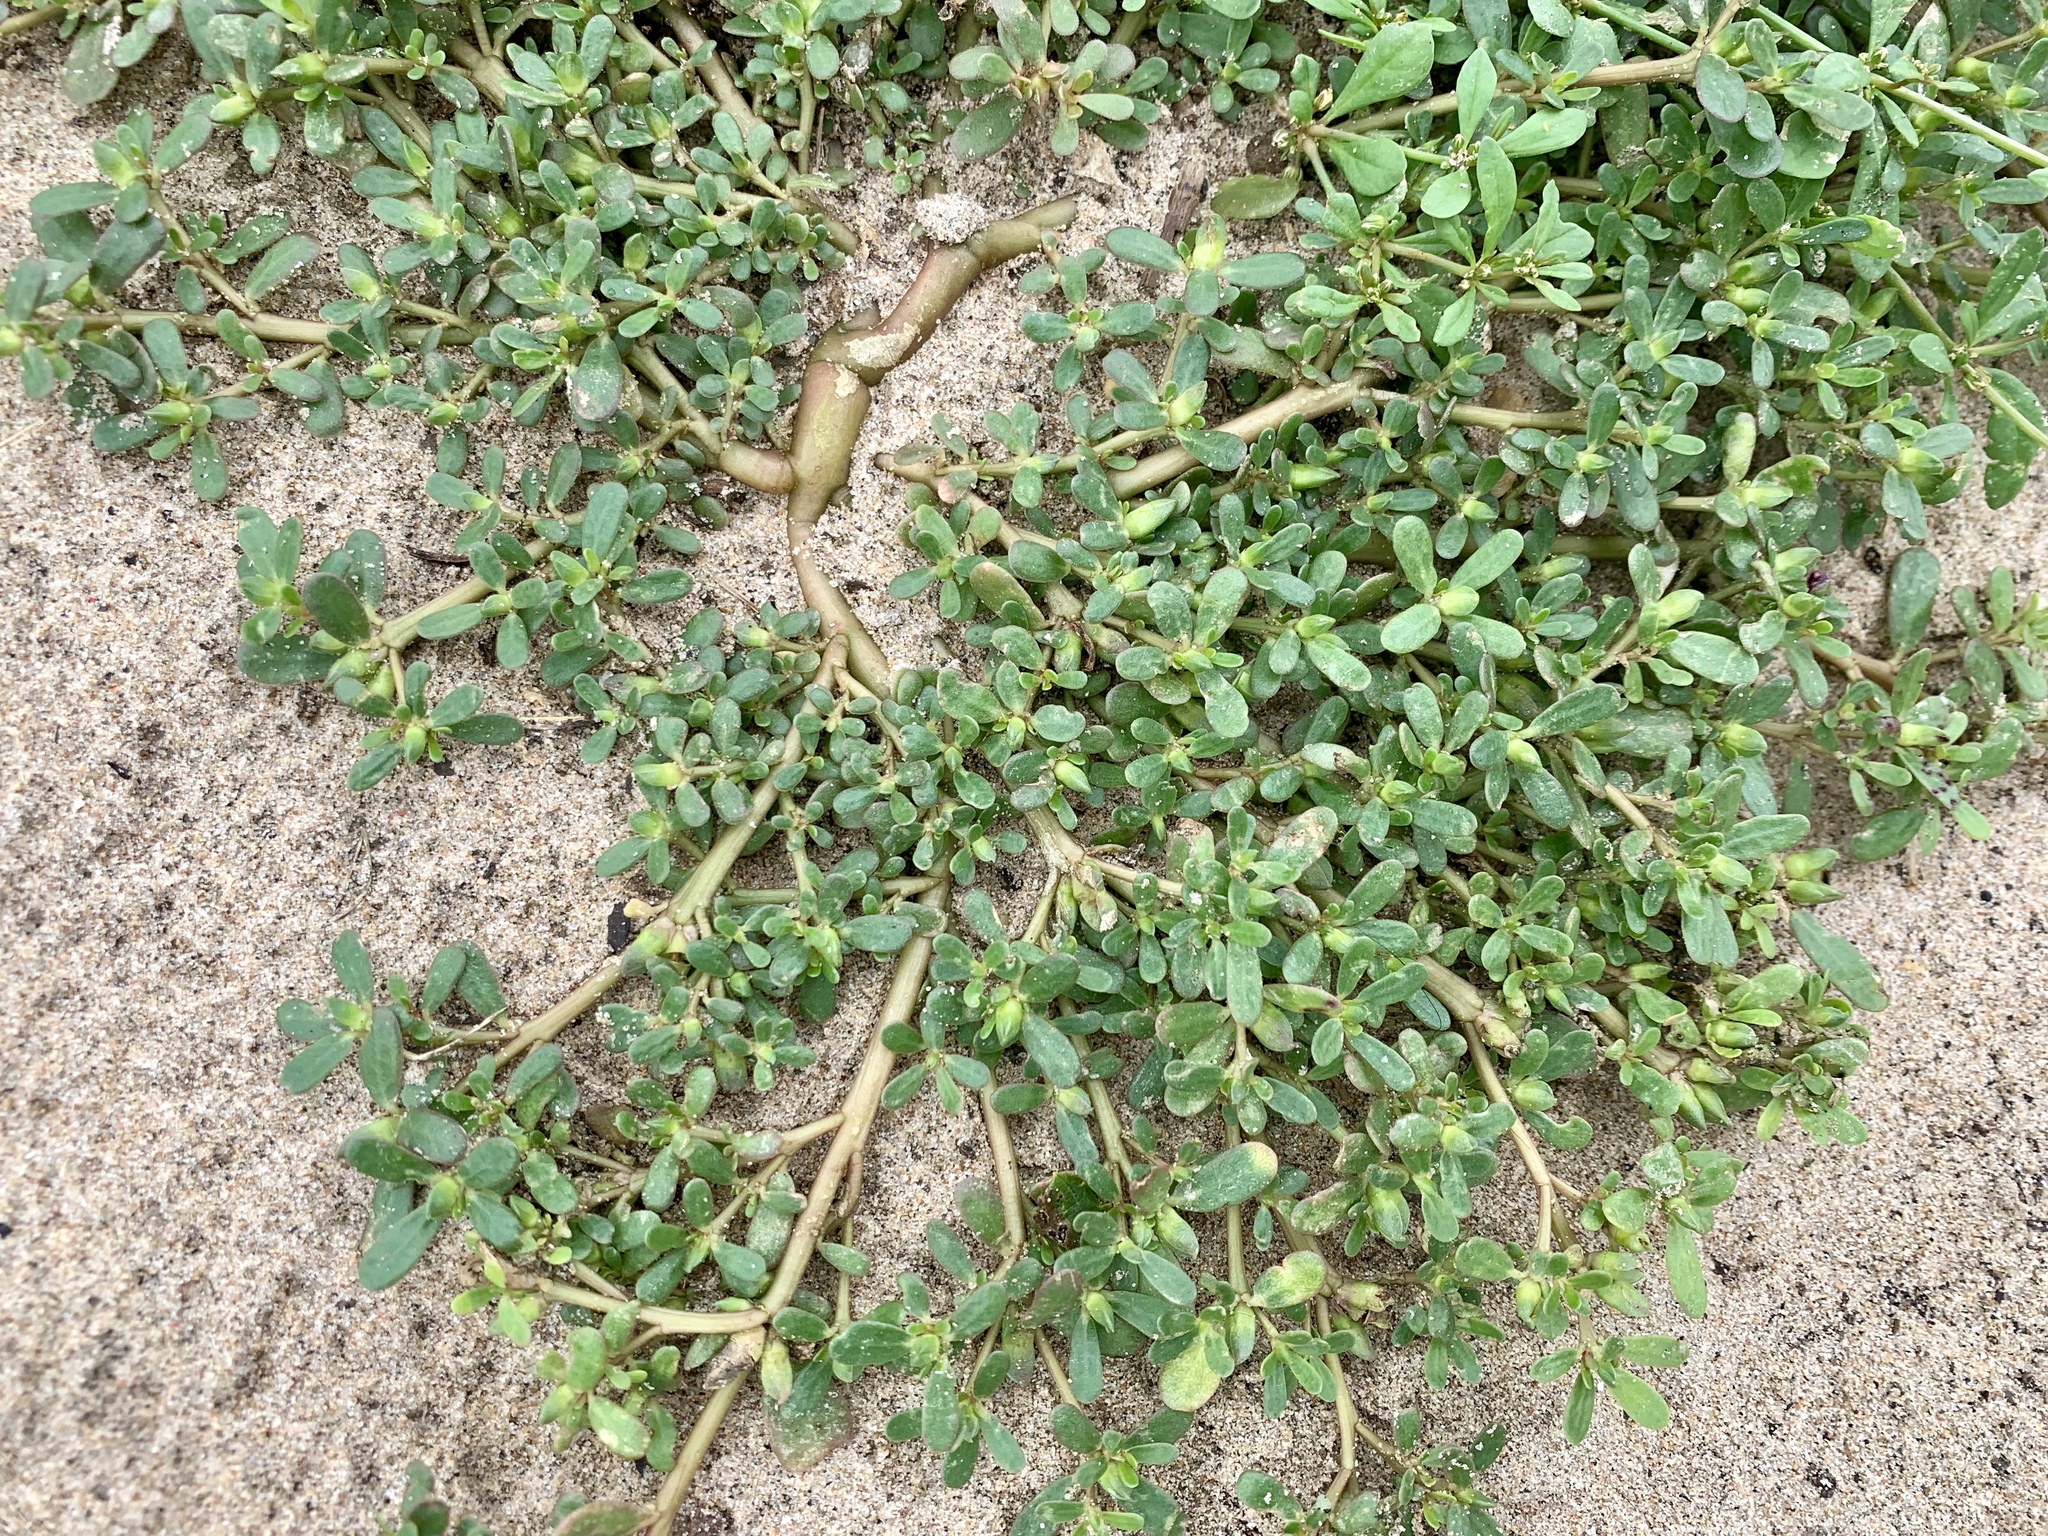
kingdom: Plantae
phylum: Tracheophyta
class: Magnoliopsida
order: Caryophyllales
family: Portulacaceae
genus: Portulaca
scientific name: Portulaca oleracea
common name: Common purslane
